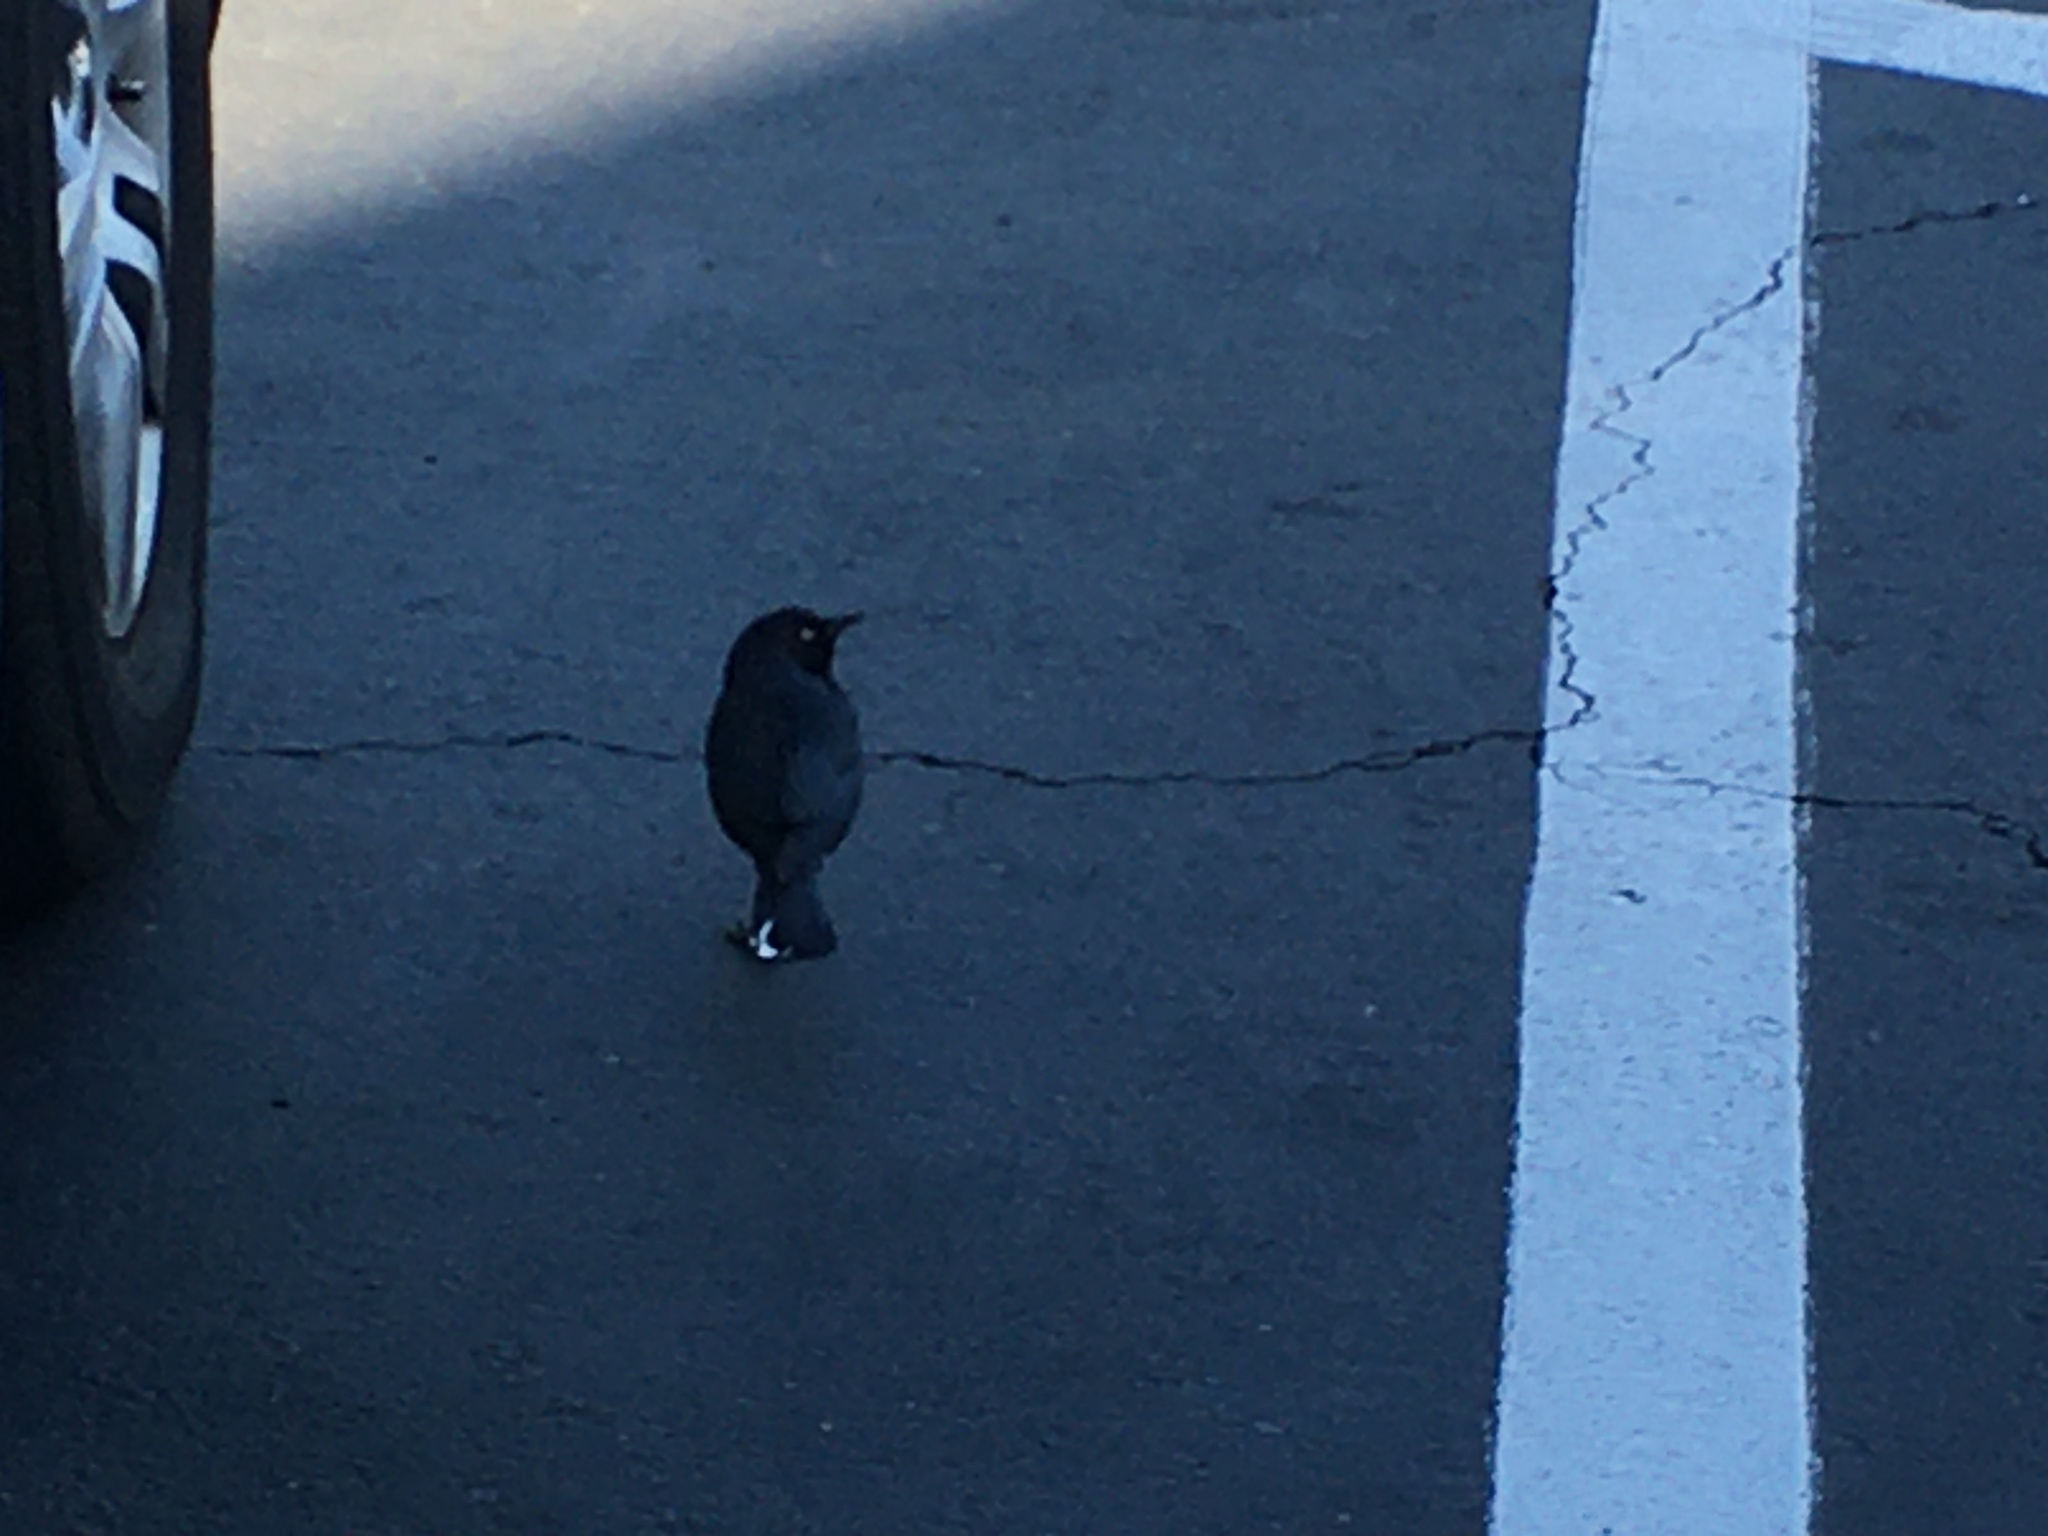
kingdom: Animalia
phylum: Chordata
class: Aves
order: Passeriformes
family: Icteridae
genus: Euphagus
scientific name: Euphagus cyanocephalus
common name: Brewer's blackbird
